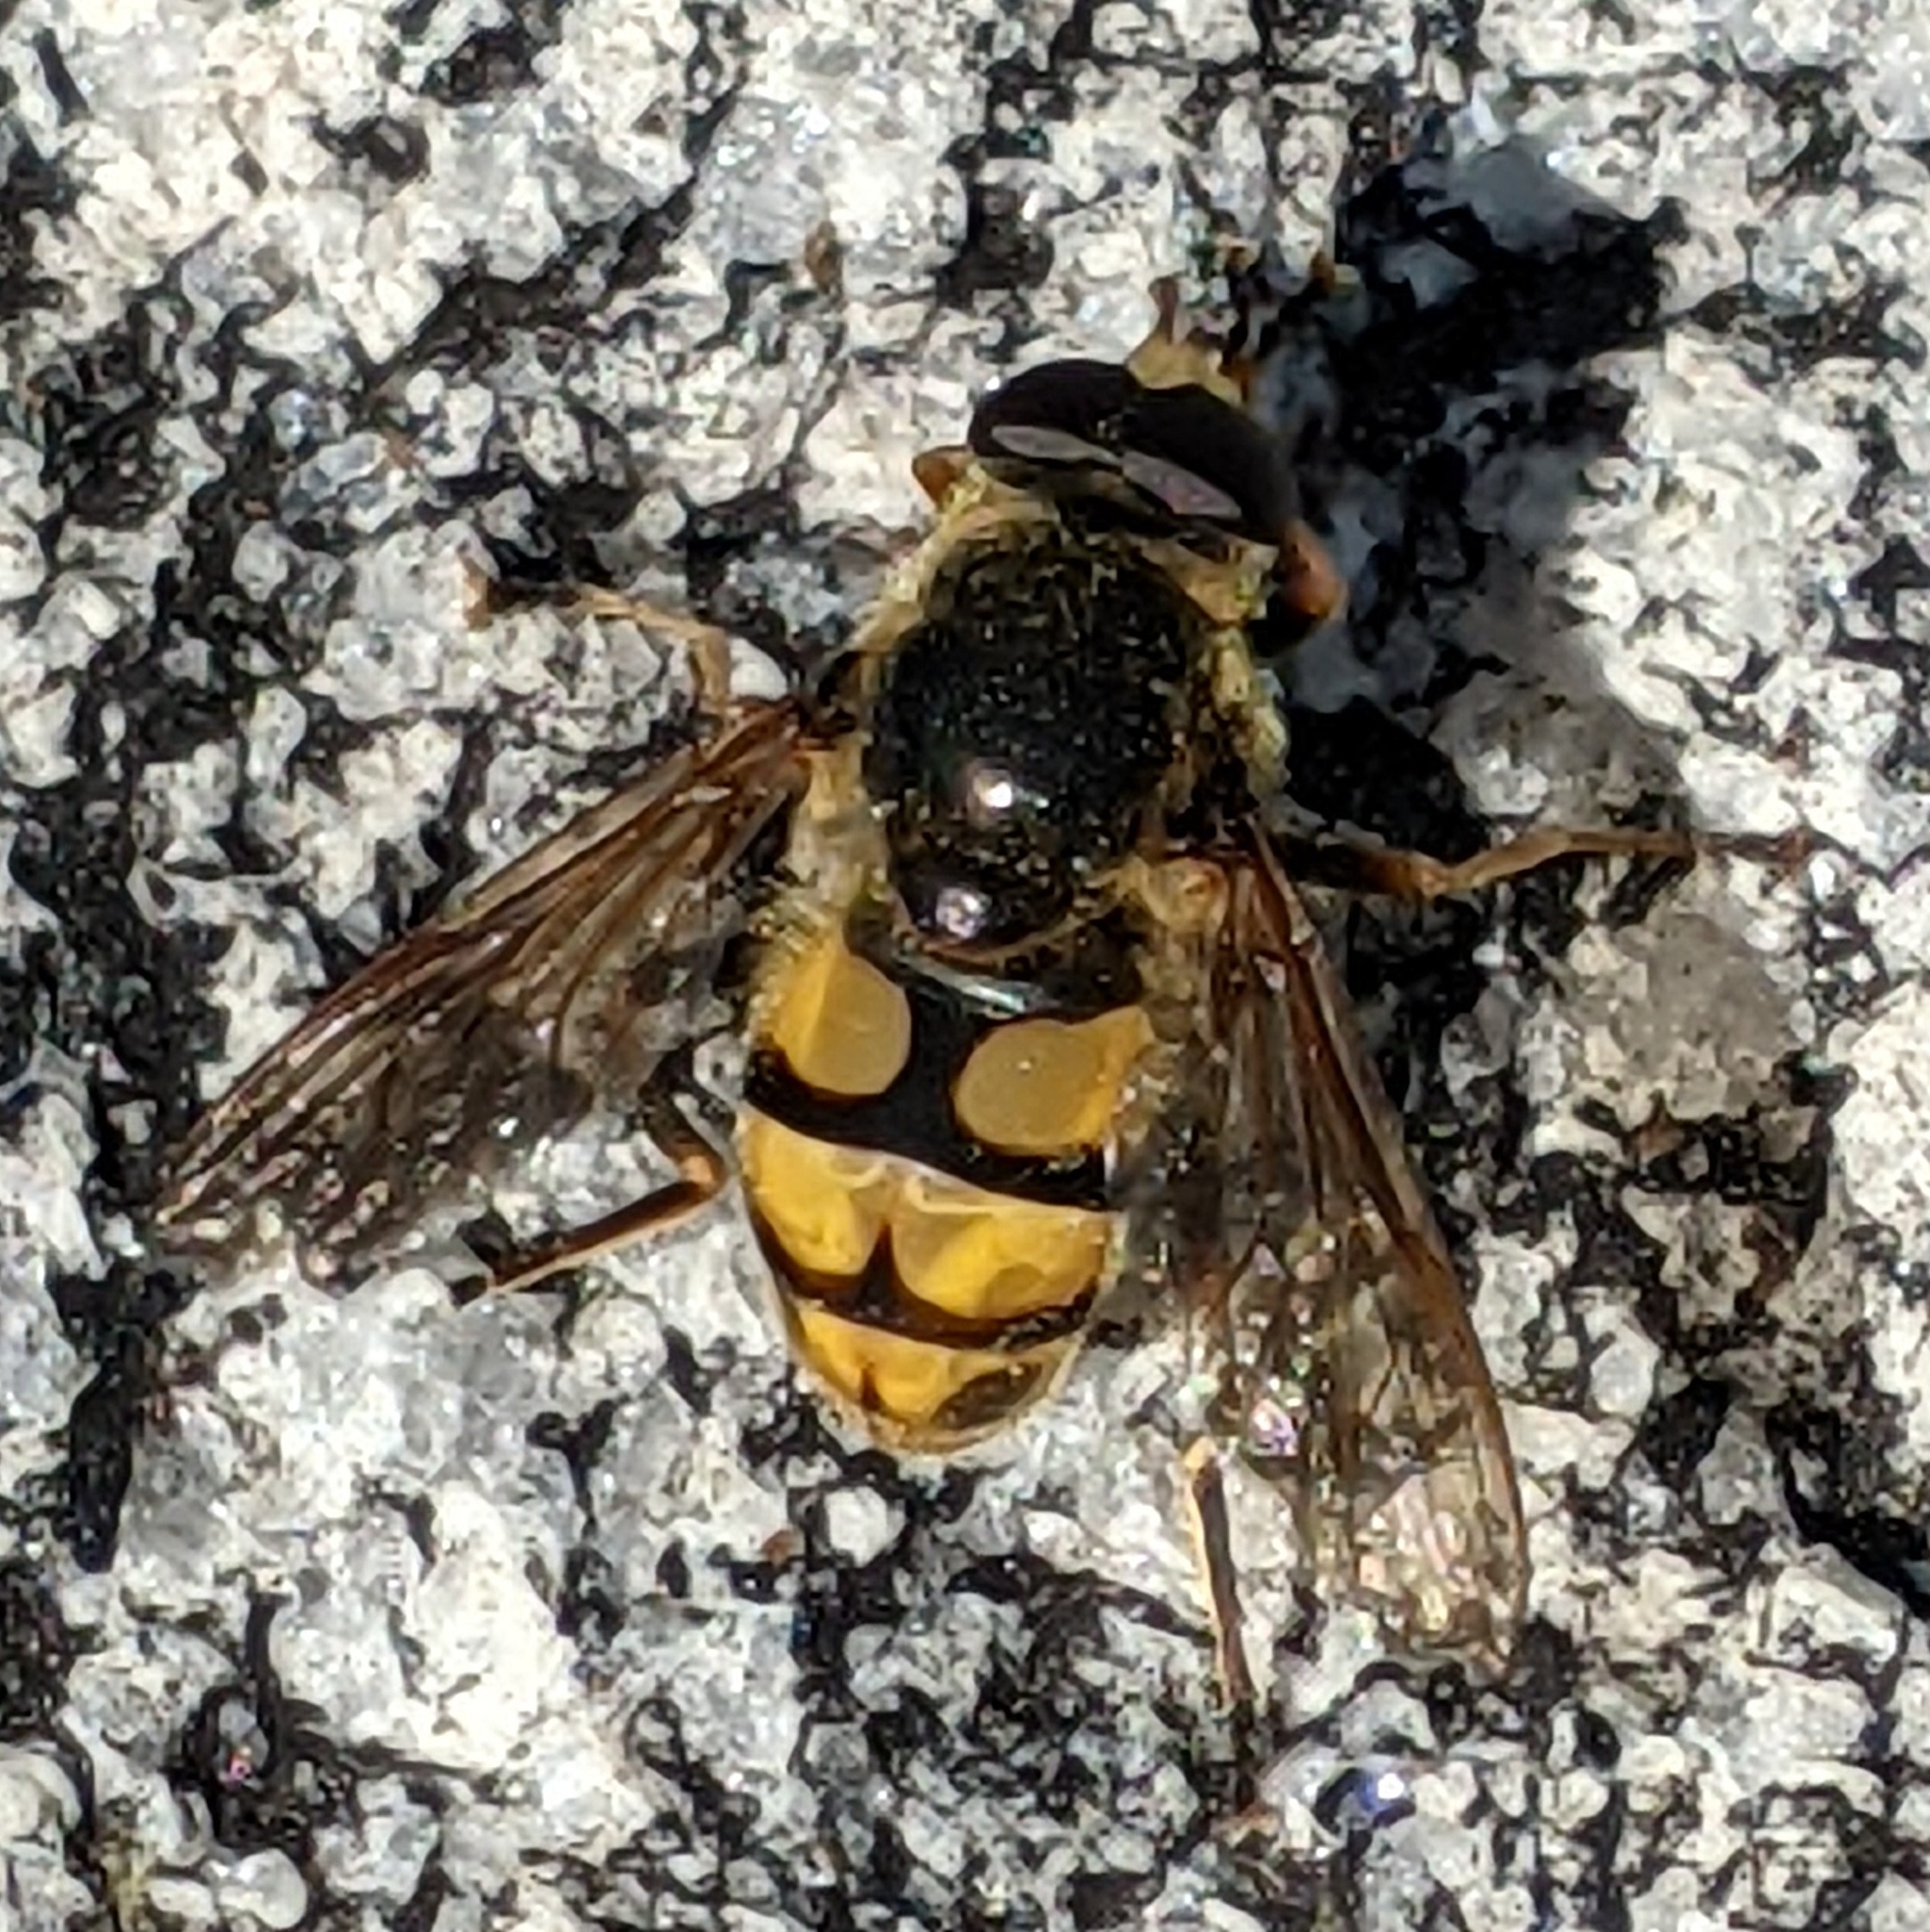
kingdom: Animalia
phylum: Arthropoda
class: Insecta
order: Diptera
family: Syrphidae
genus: Blera
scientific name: Blera scitula
